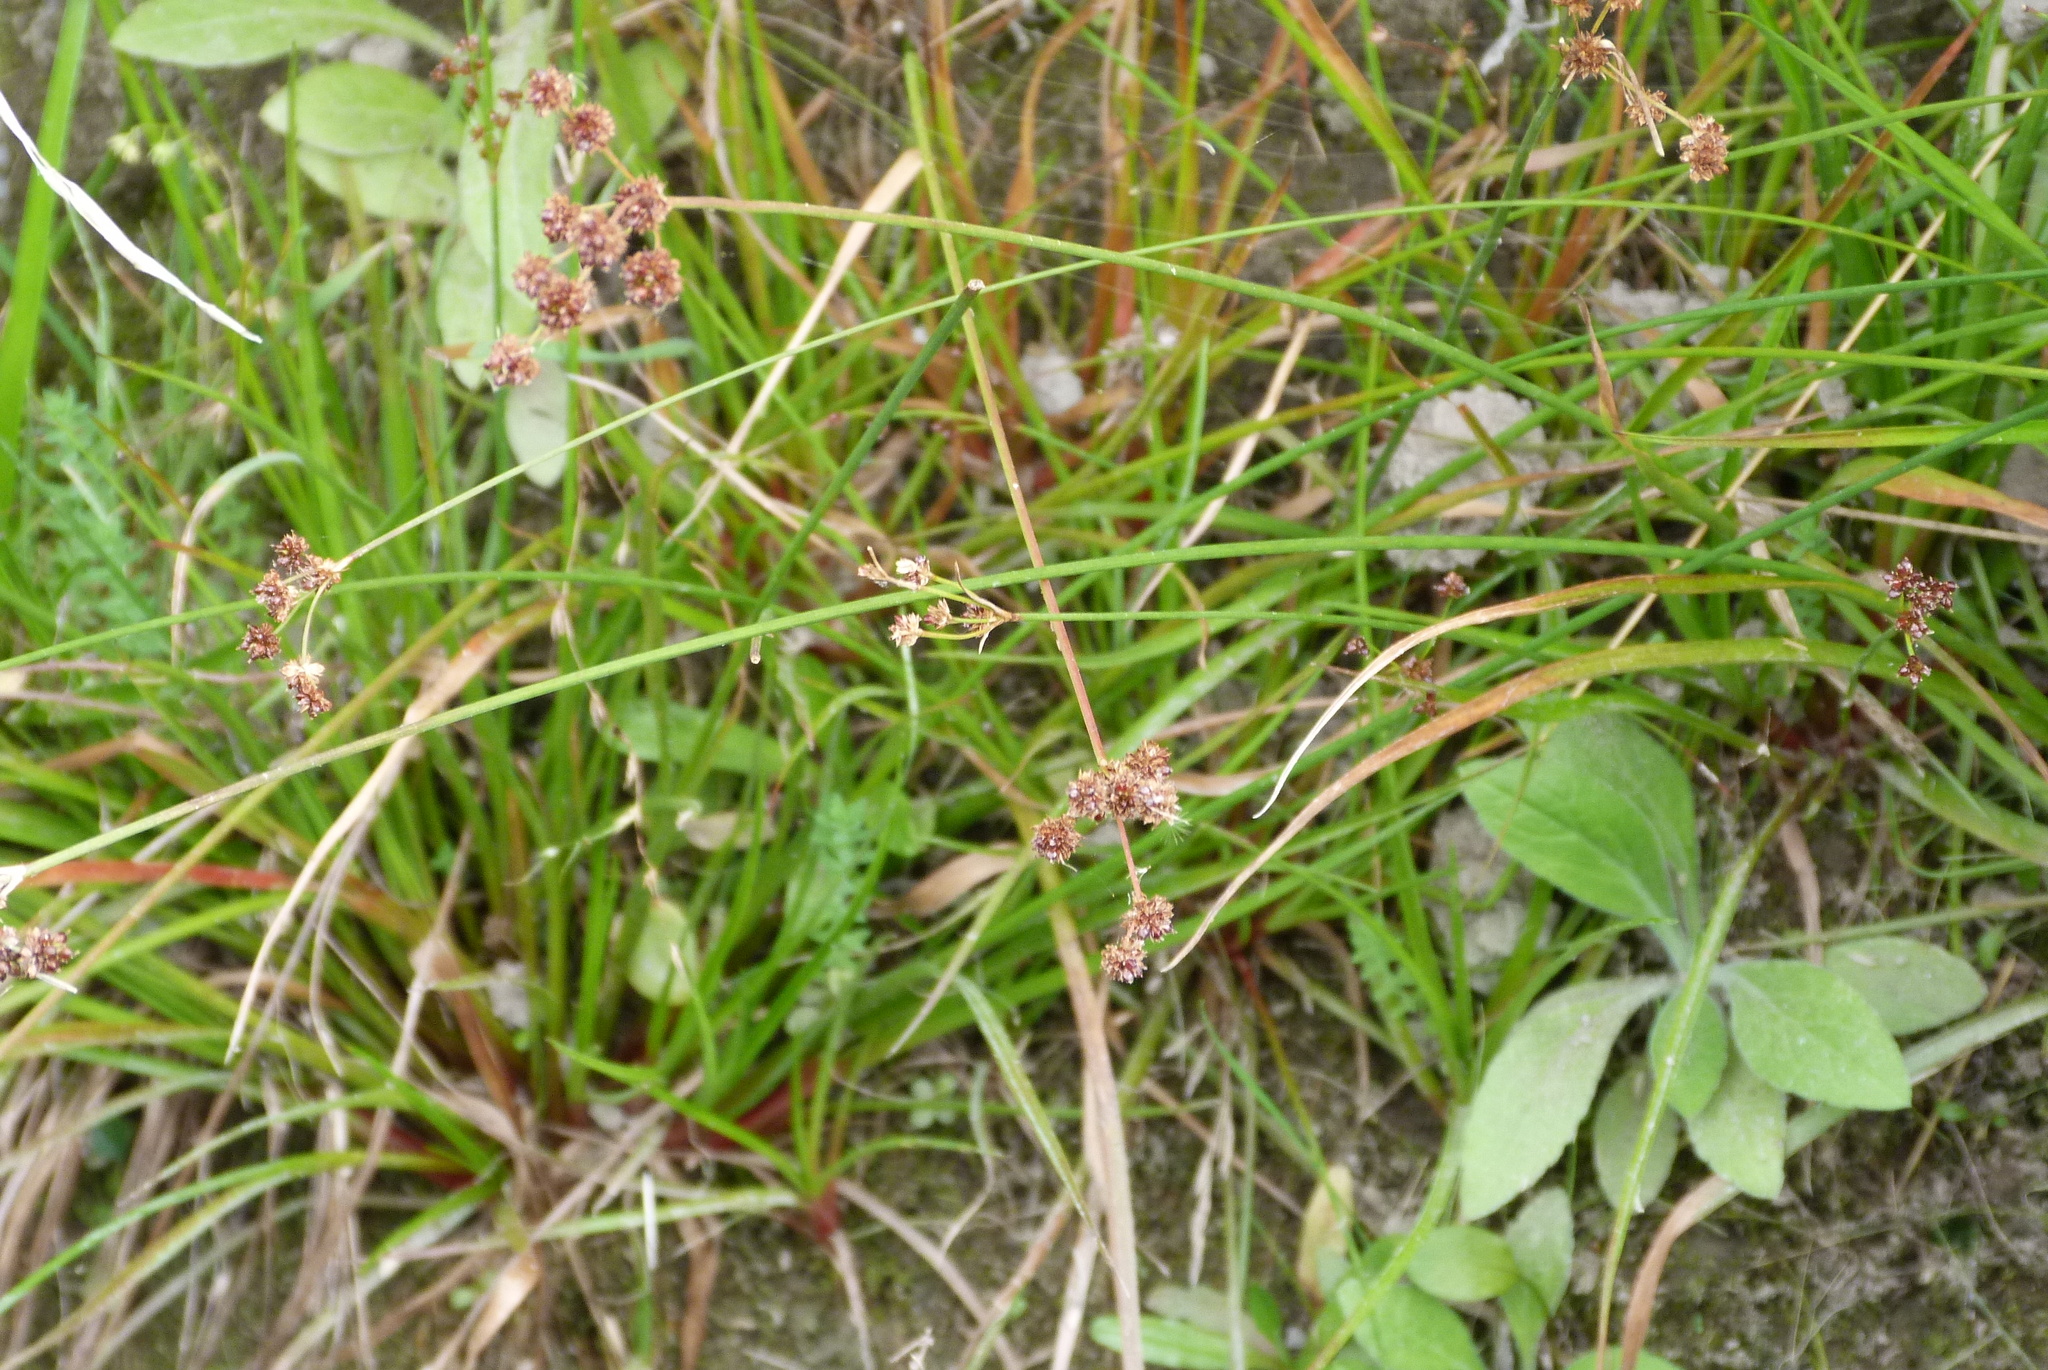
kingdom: Plantae
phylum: Tracheophyta
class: Liliopsida
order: Poales
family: Juncaceae
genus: Juncus
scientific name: Juncus planifolius
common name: Broadleaf rush
